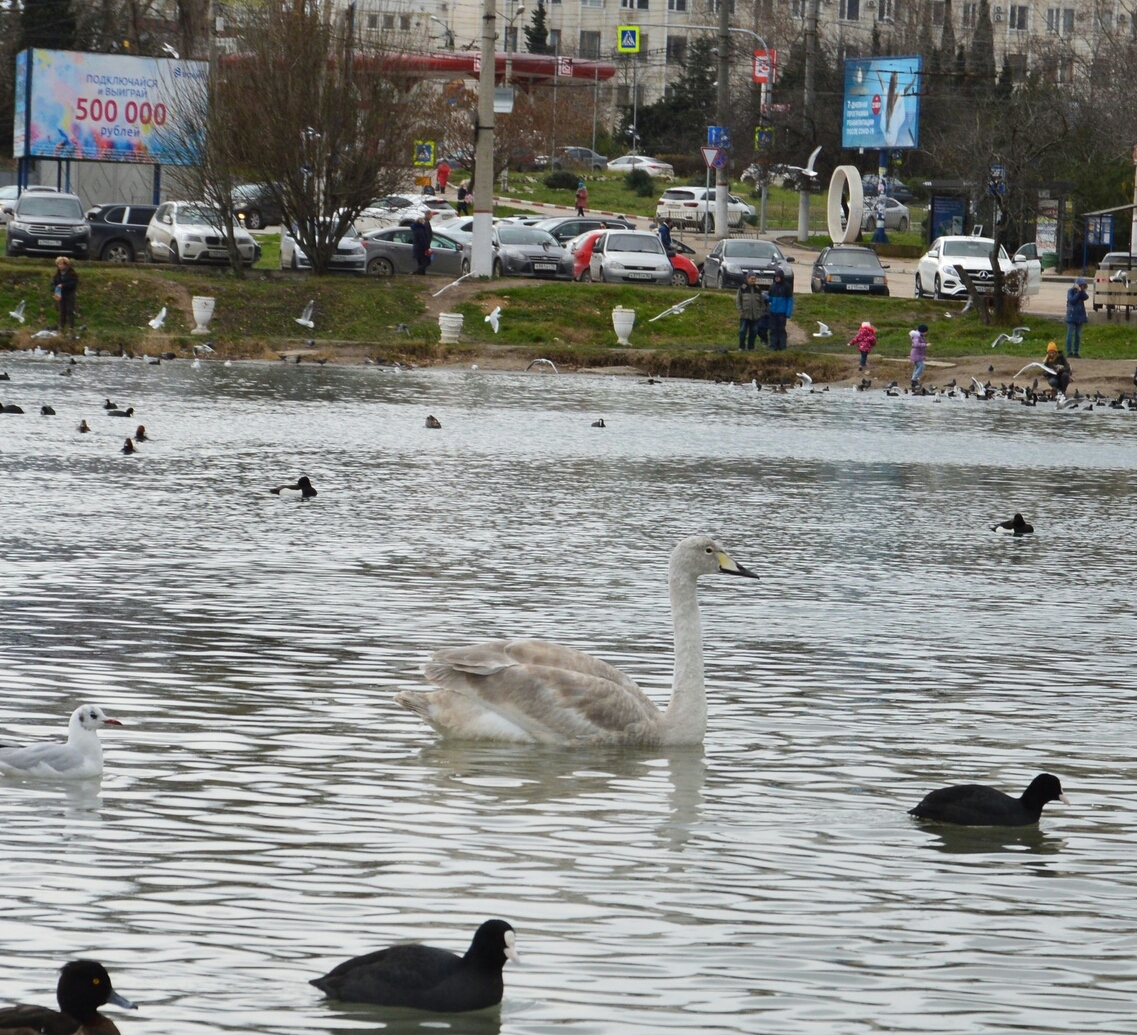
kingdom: Animalia
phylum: Chordata
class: Aves
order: Anseriformes
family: Anatidae
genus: Cygnus
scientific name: Cygnus cygnus
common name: Whooper swan
